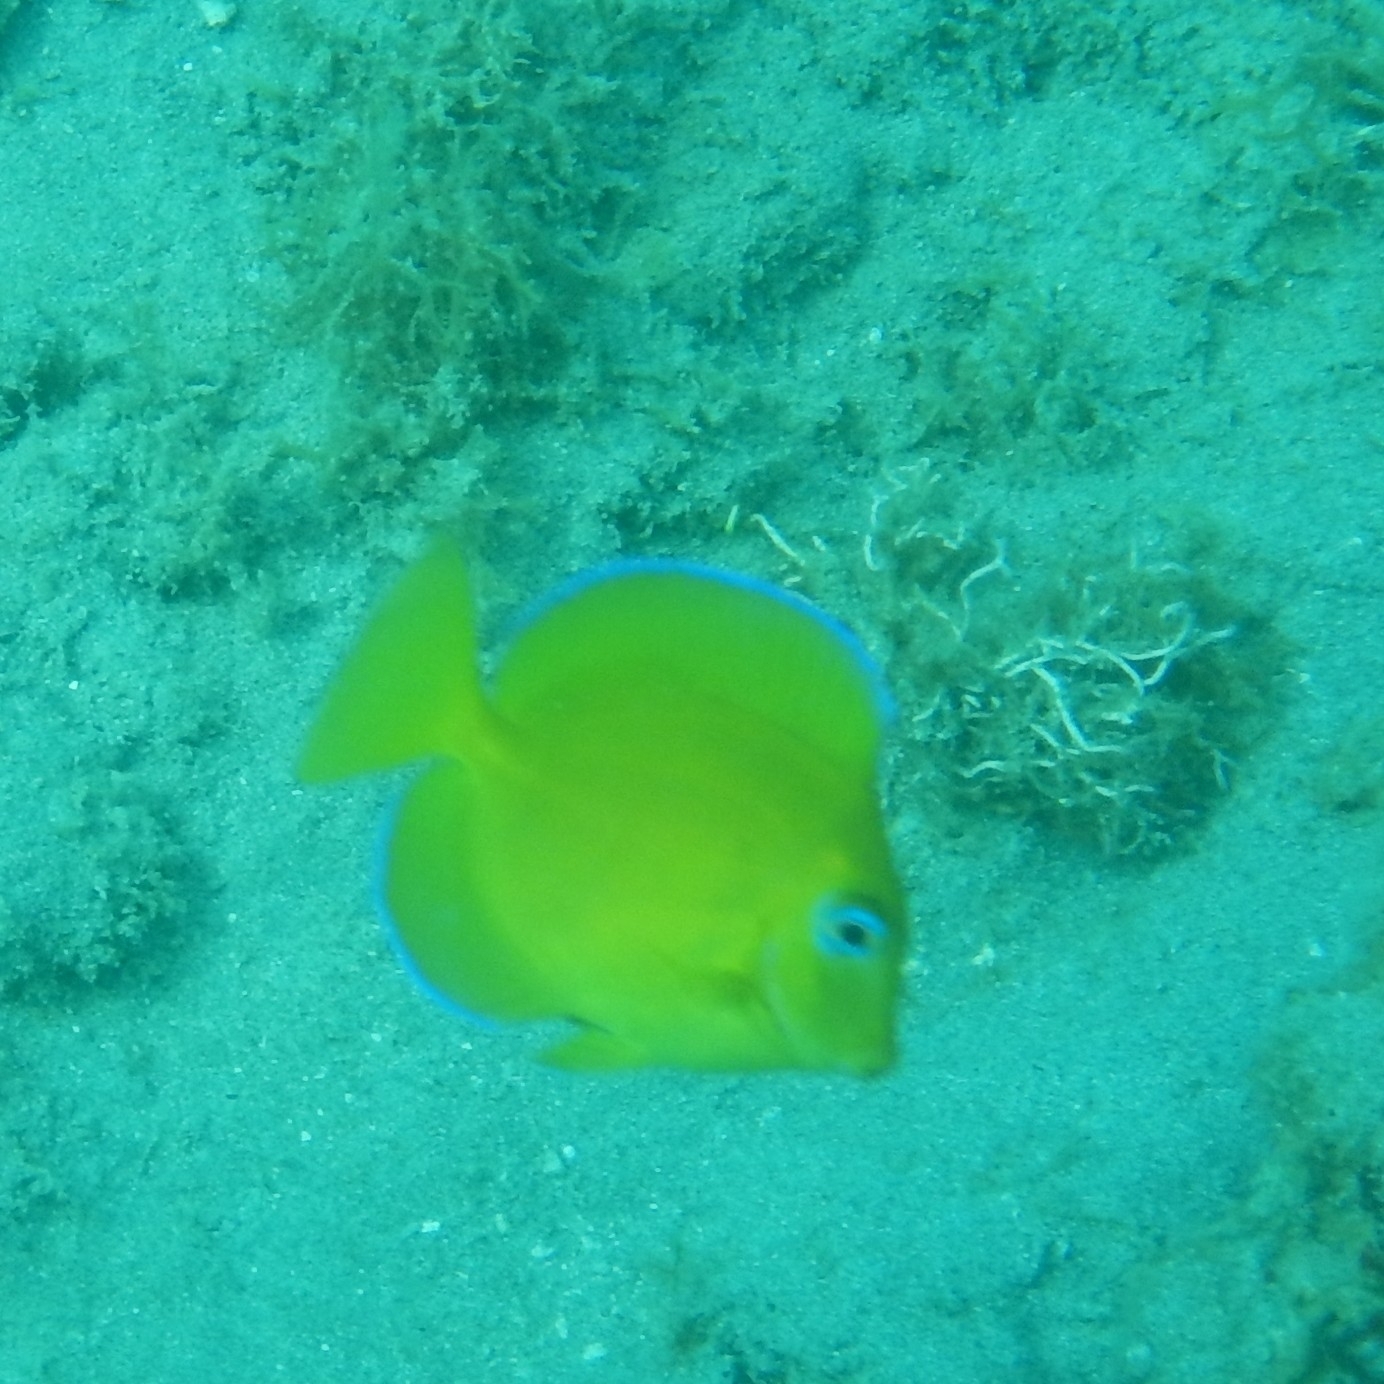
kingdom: Animalia
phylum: Chordata
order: Perciformes
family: Acanthuridae
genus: Acanthurus
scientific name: Acanthurus coeruleus
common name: Blue tang
